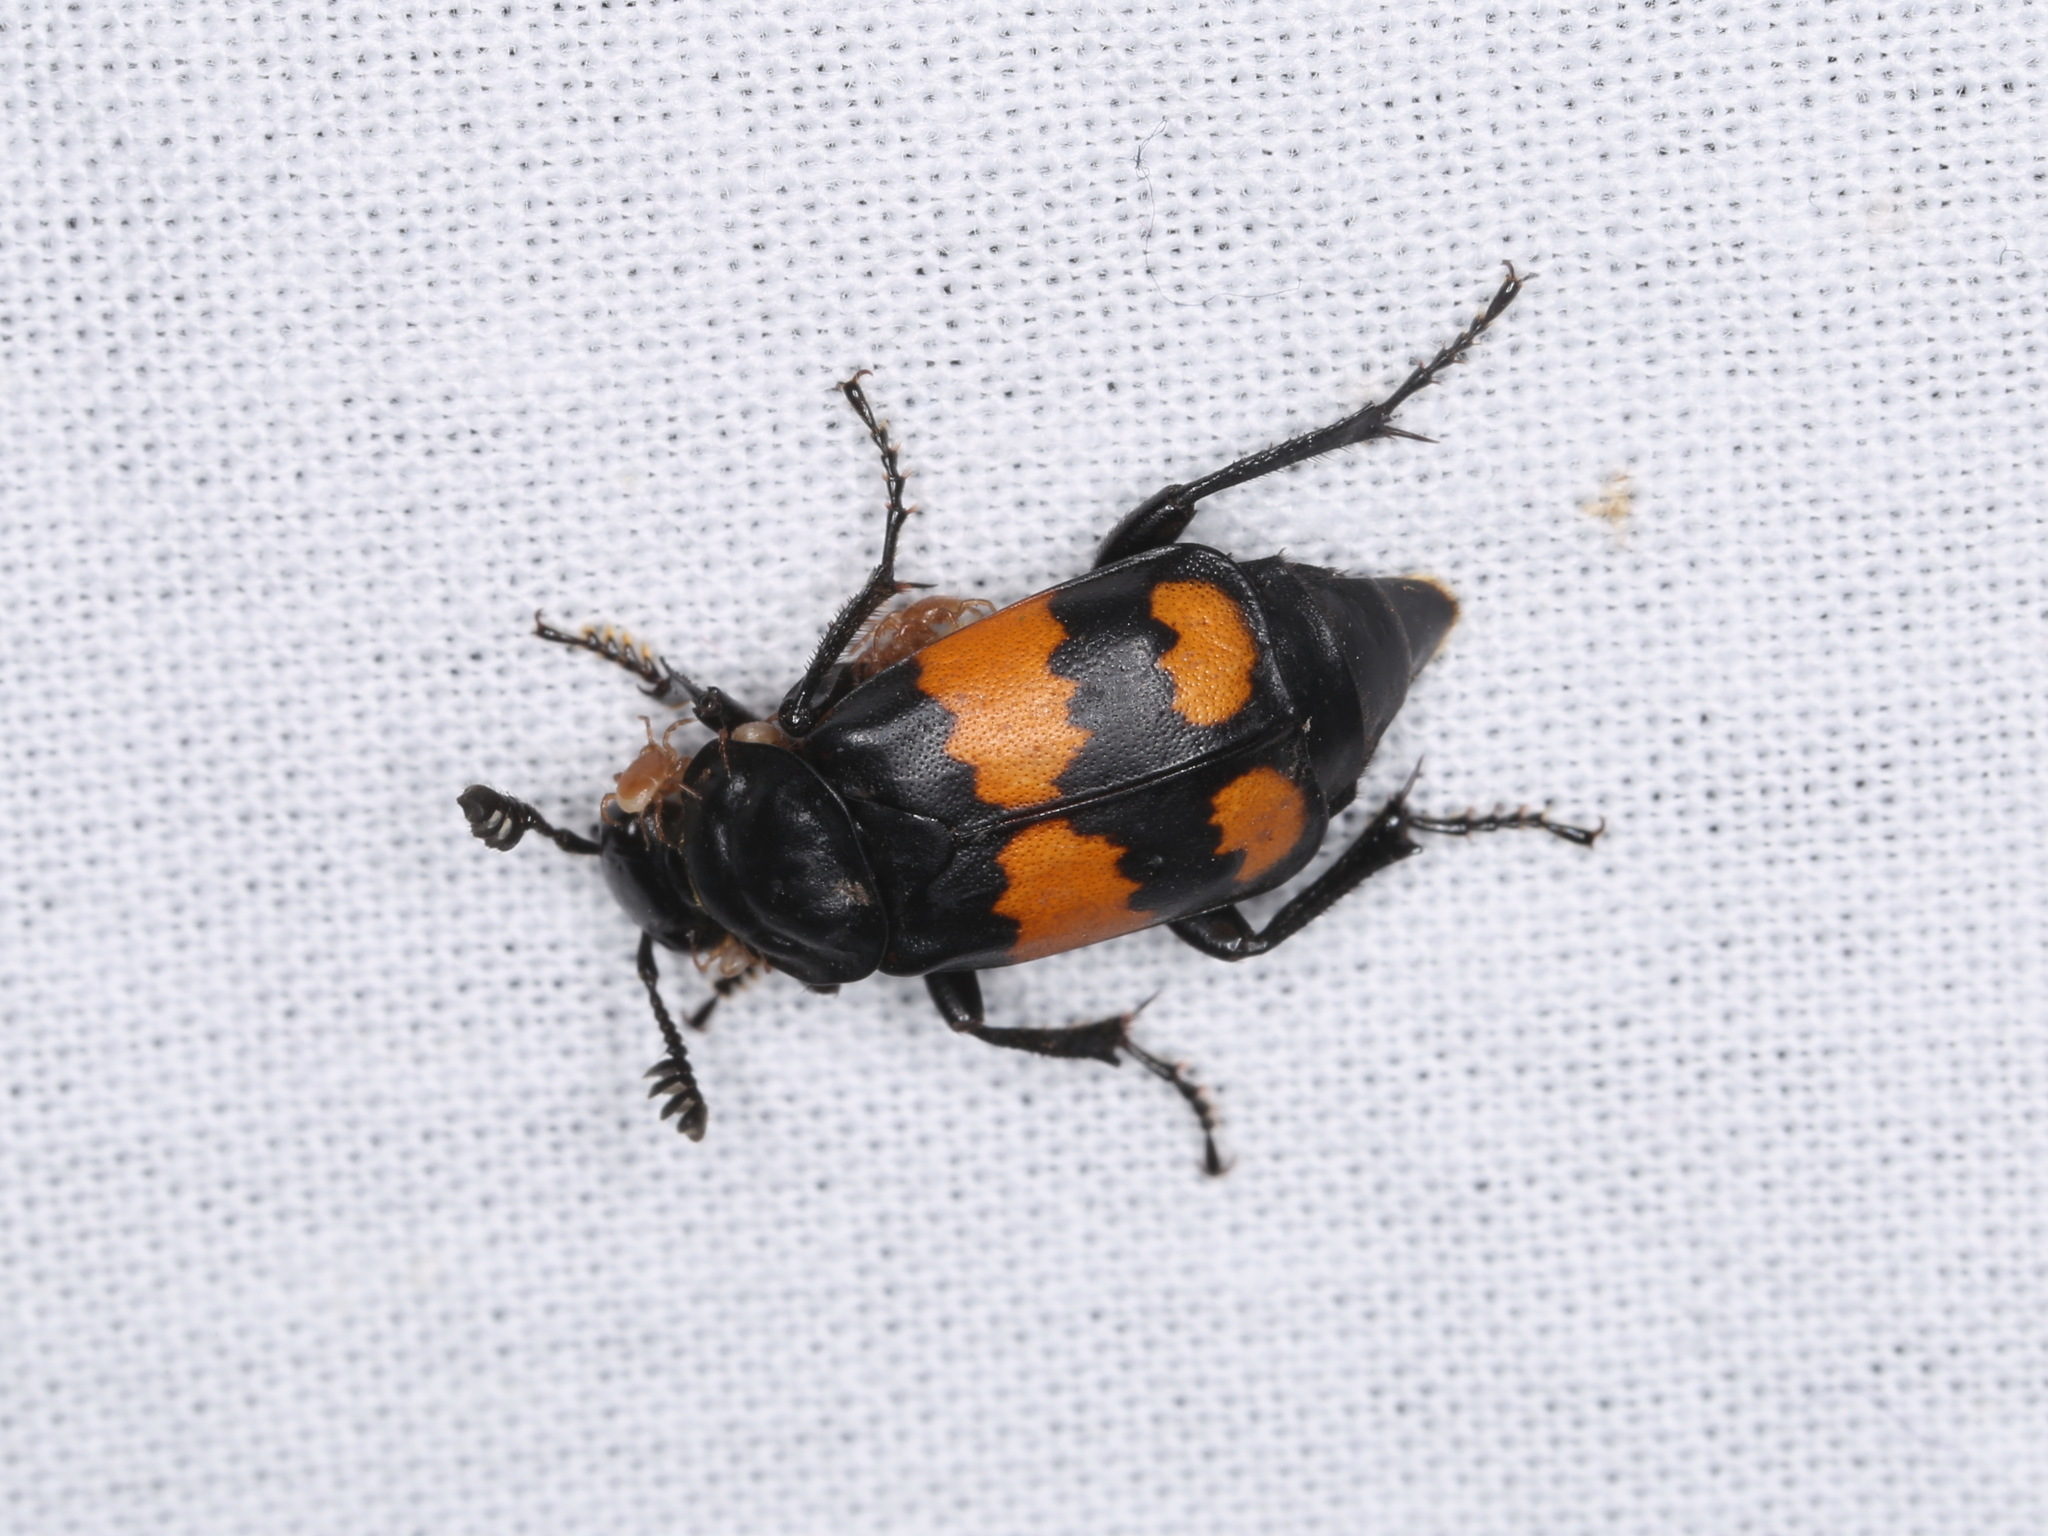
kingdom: Animalia
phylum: Arthropoda
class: Insecta
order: Coleoptera
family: Staphylinidae
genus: Nicrophorus
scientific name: Nicrophorus vespilloides
